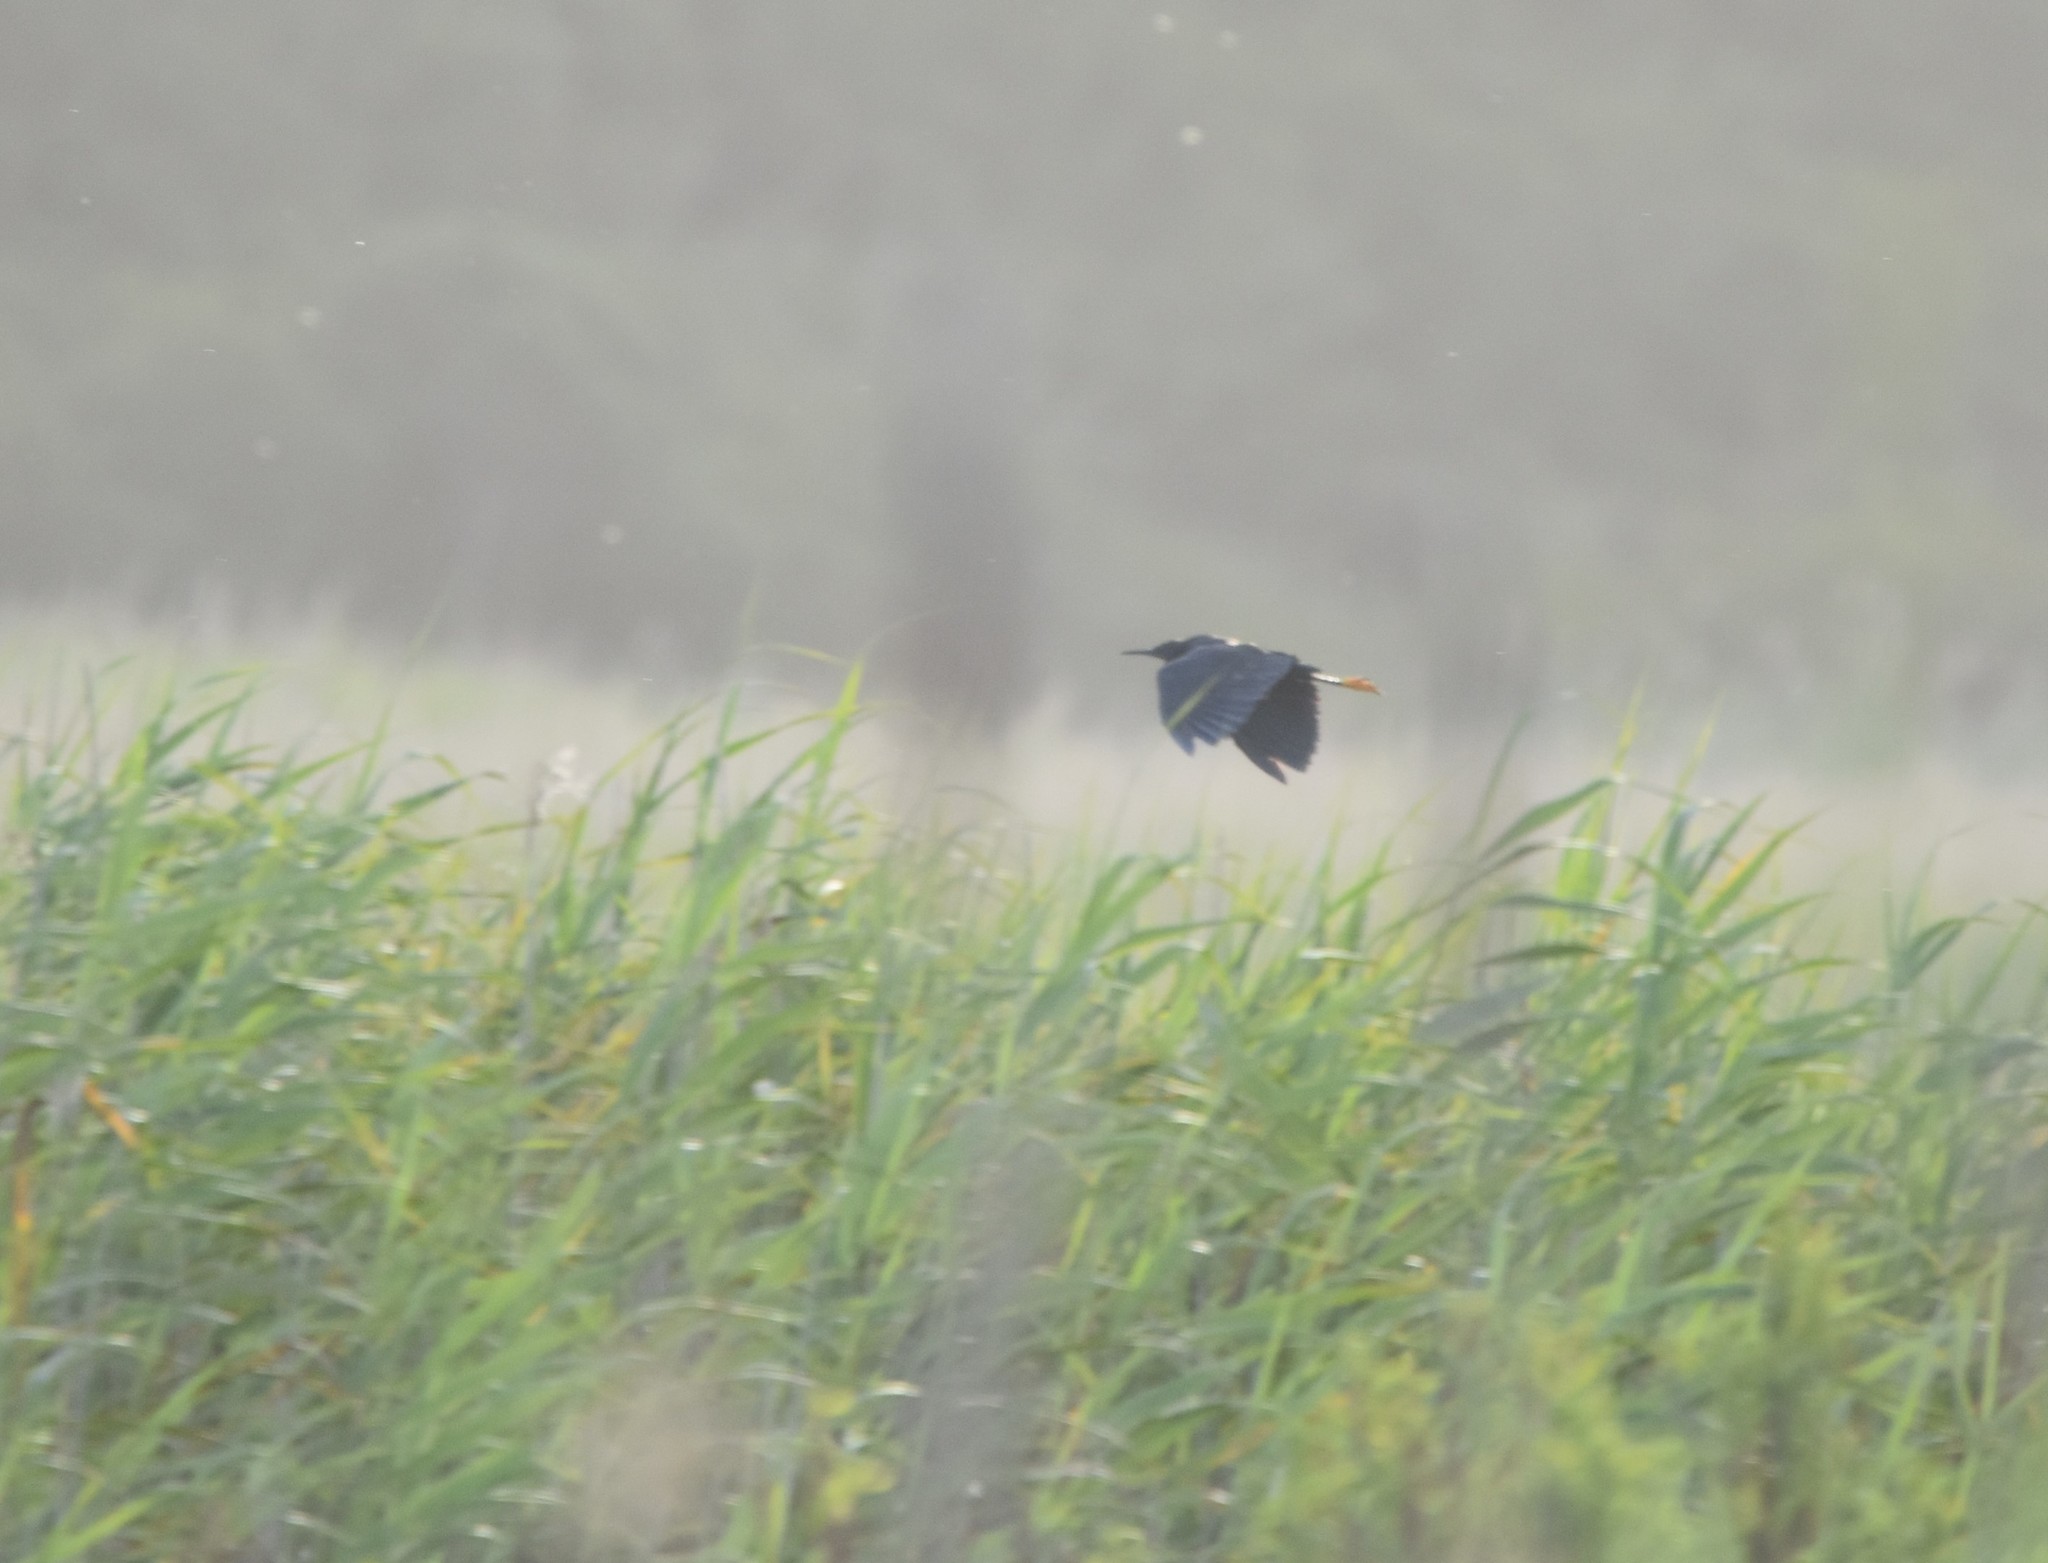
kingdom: Animalia
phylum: Chordata
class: Aves
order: Pelecaniformes
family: Ardeidae
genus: Egretta
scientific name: Egretta ardesiaca
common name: Black heron
